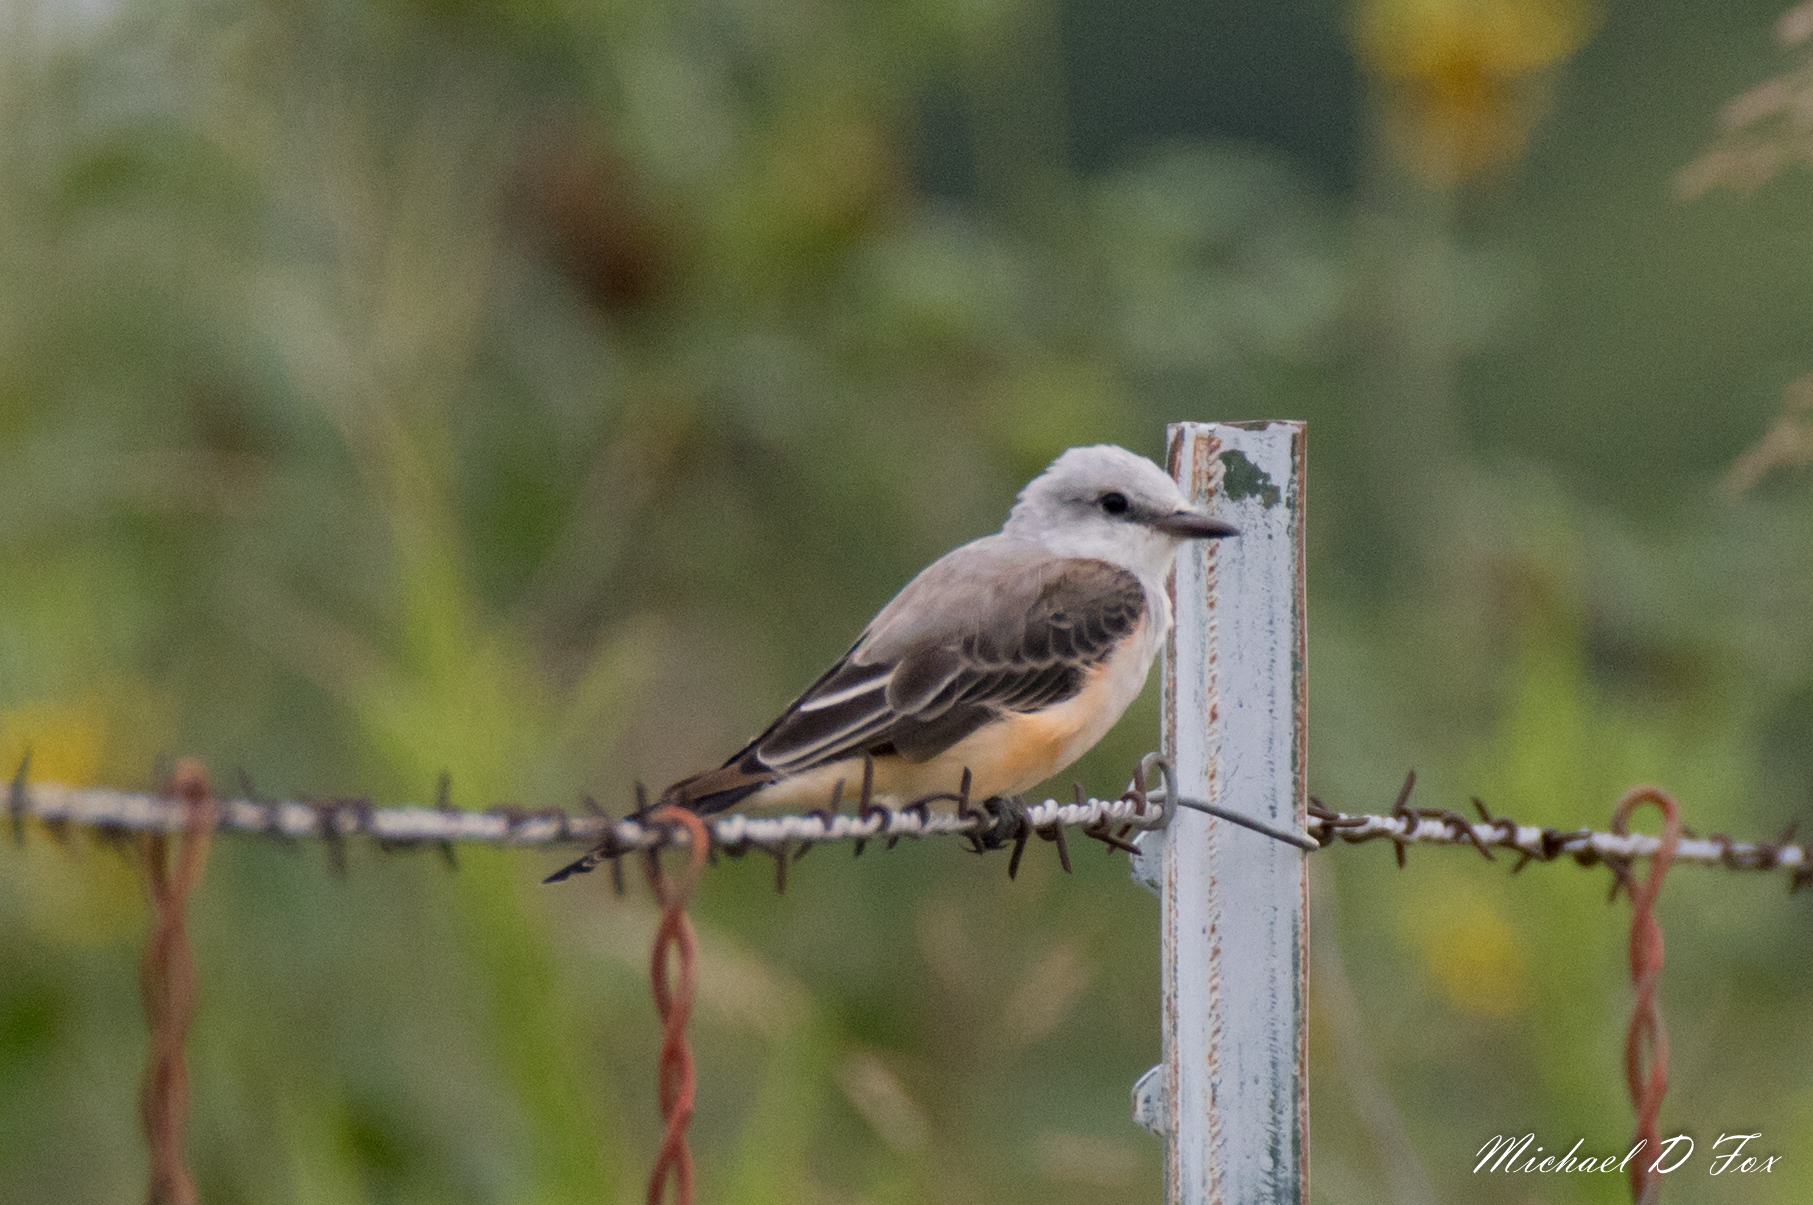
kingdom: Animalia
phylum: Chordata
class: Aves
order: Passeriformes
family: Tyrannidae
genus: Tyrannus
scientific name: Tyrannus forficatus
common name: Scissor-tailed flycatcher
